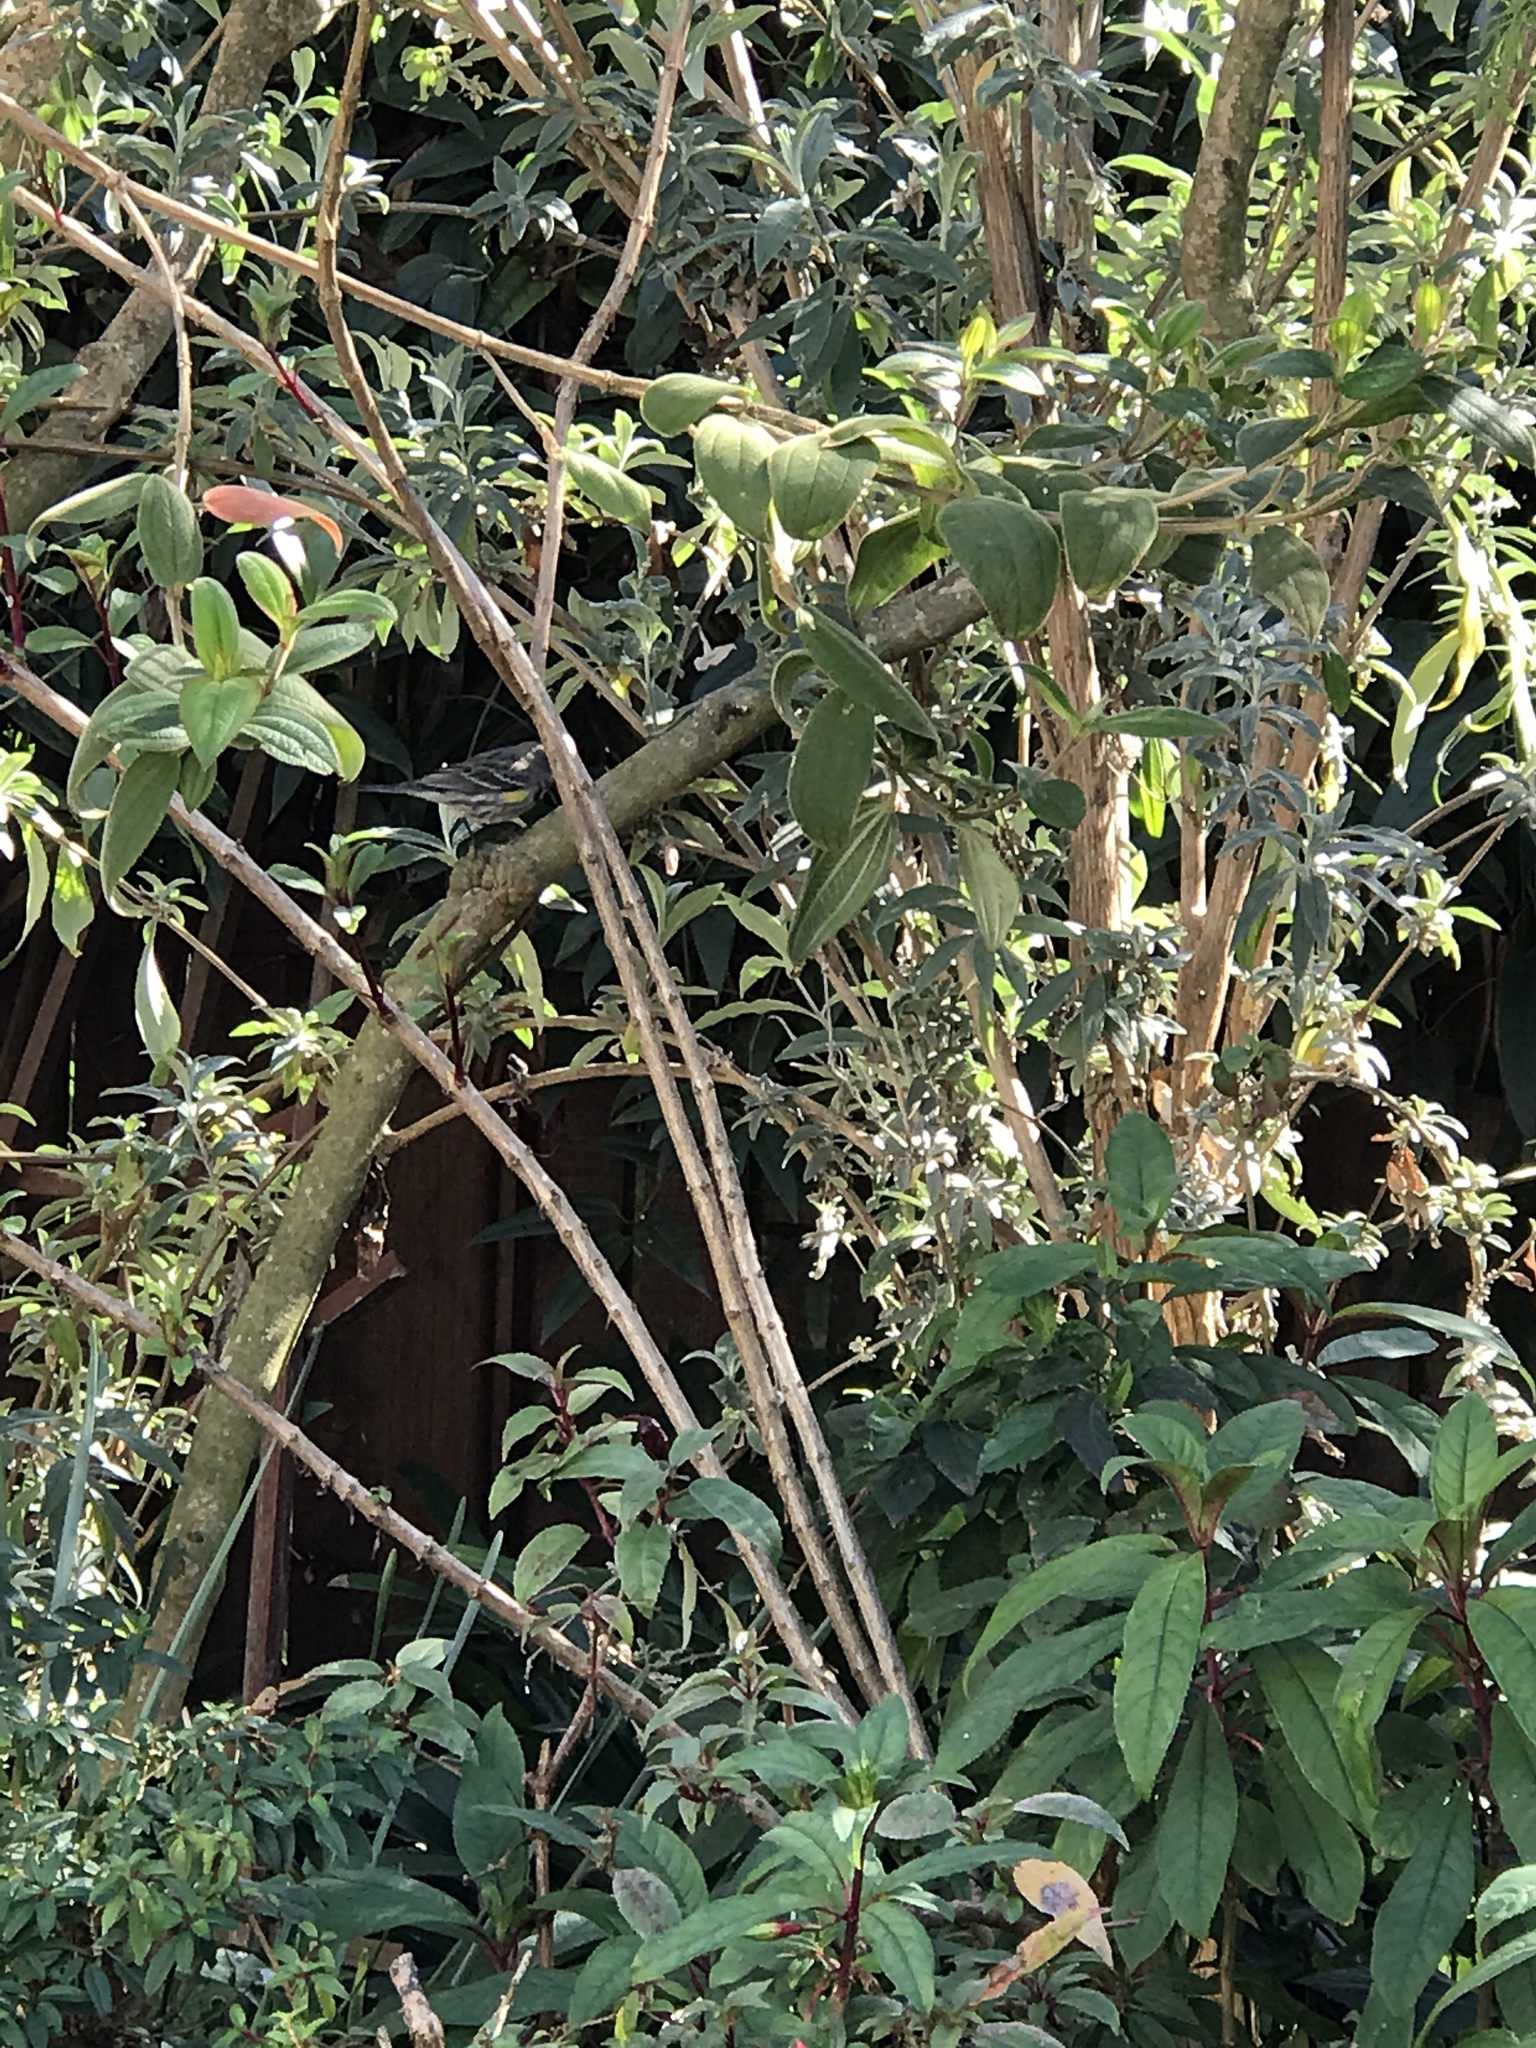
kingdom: Animalia
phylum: Chordata
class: Aves
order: Passeriformes
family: Parulidae
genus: Setophaga
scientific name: Setophaga coronata
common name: Myrtle warbler
